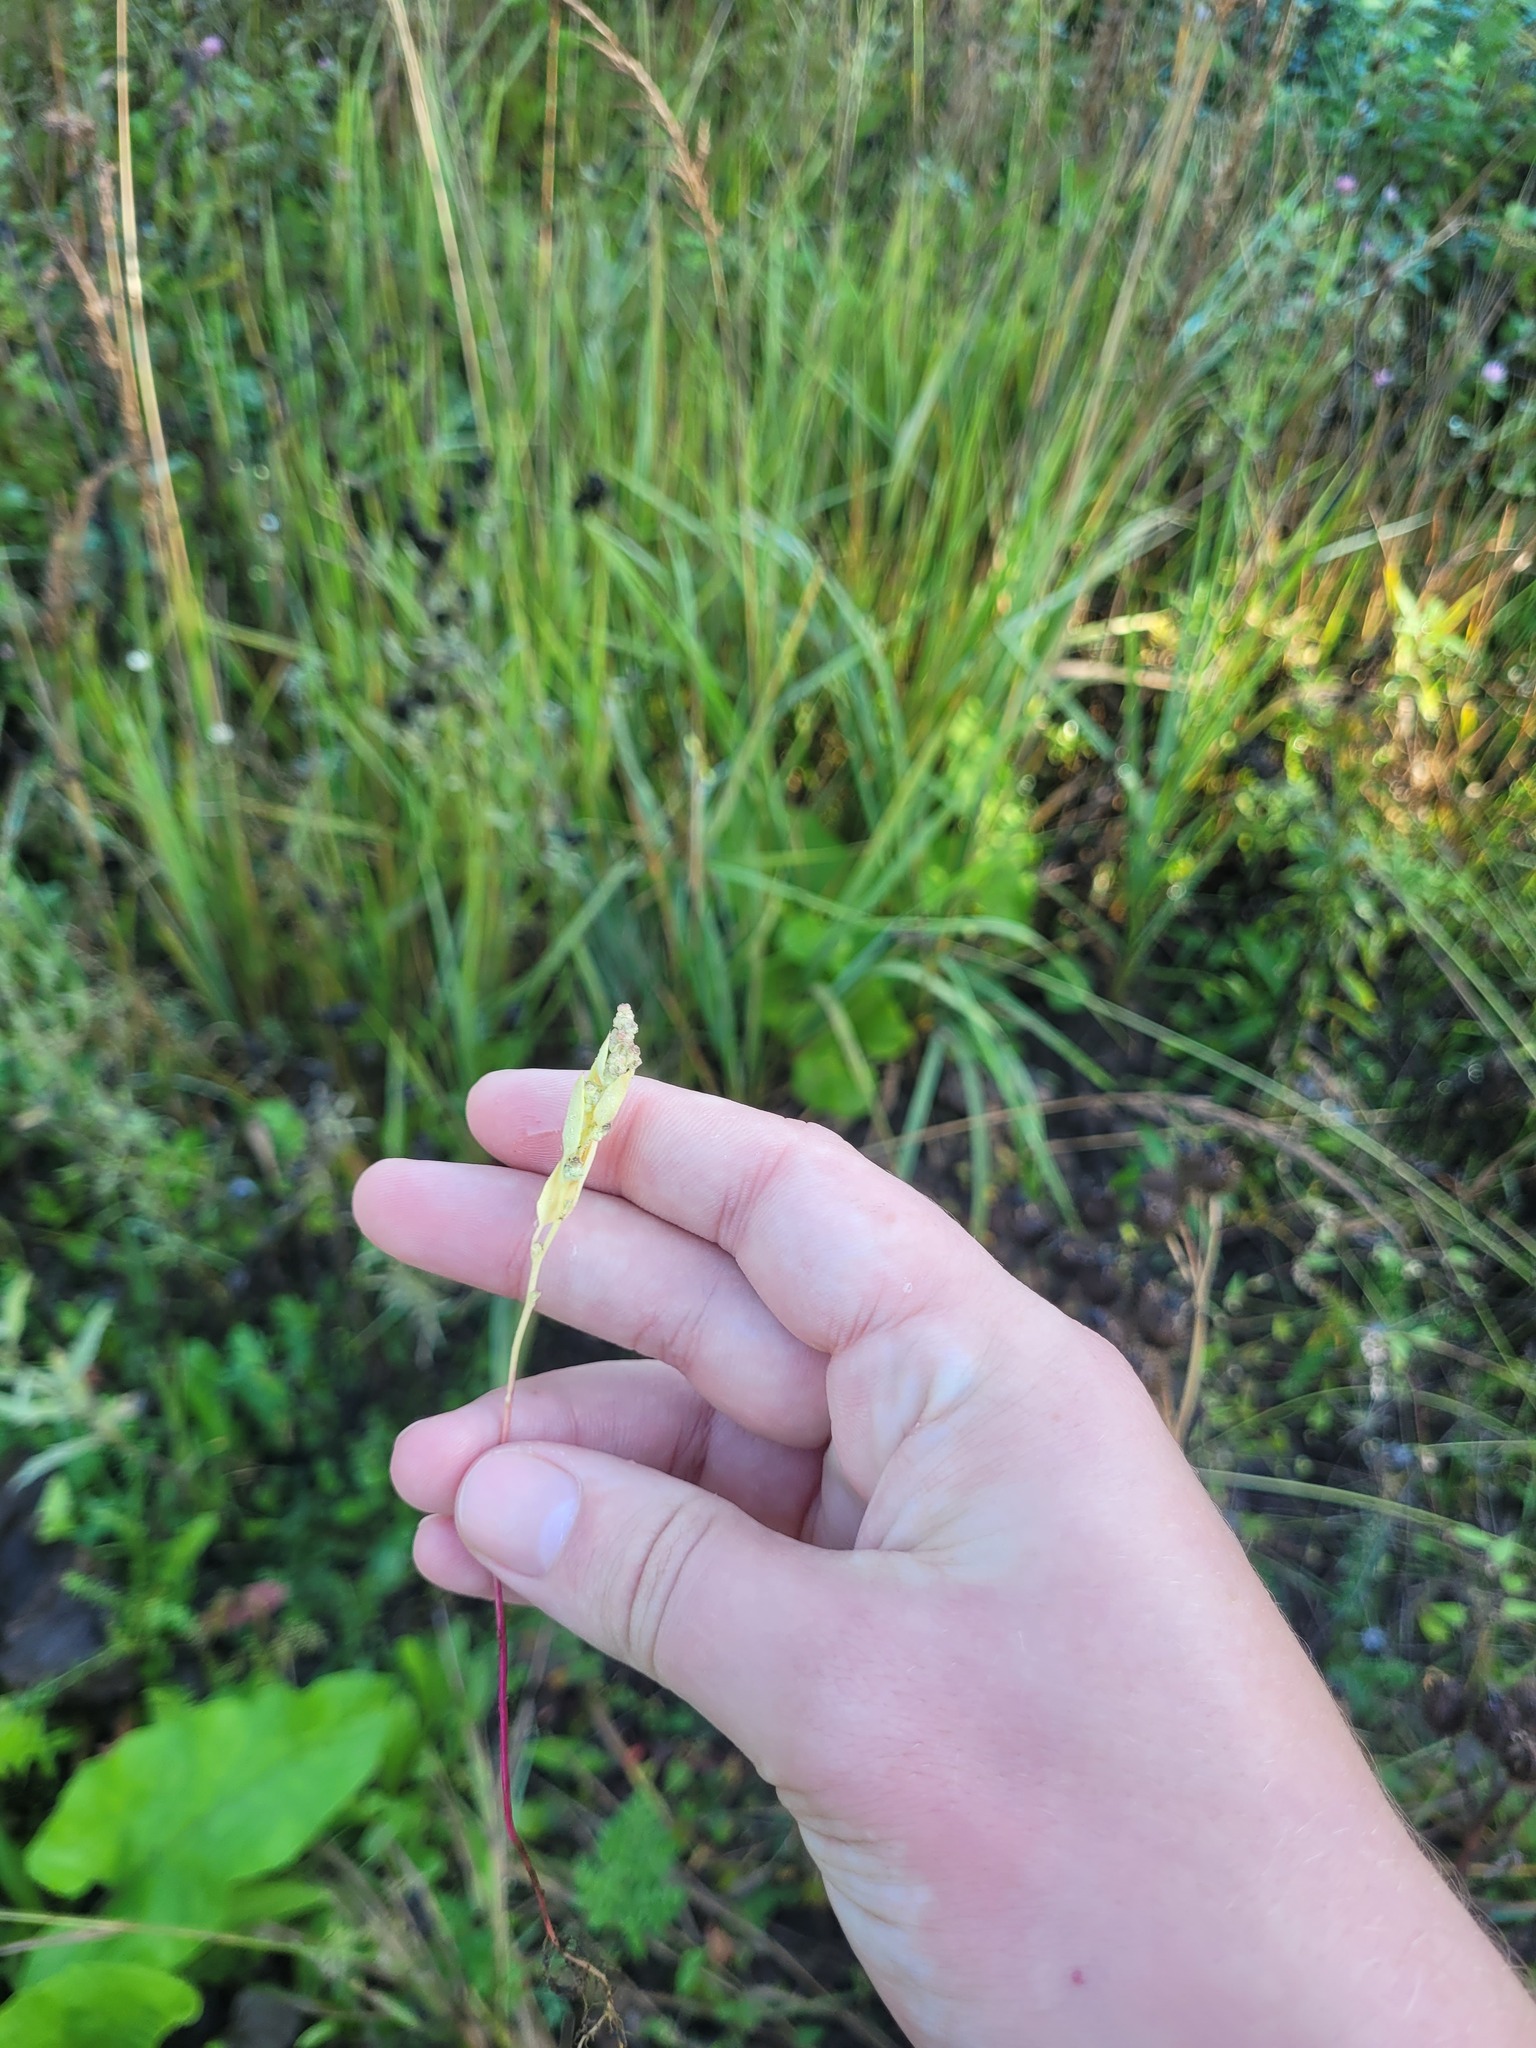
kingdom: Plantae
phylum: Tracheophyta
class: Magnoliopsida
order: Caryophyllales
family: Amaranthaceae
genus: Chenopodium
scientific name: Chenopodium album
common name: Fat-hen
